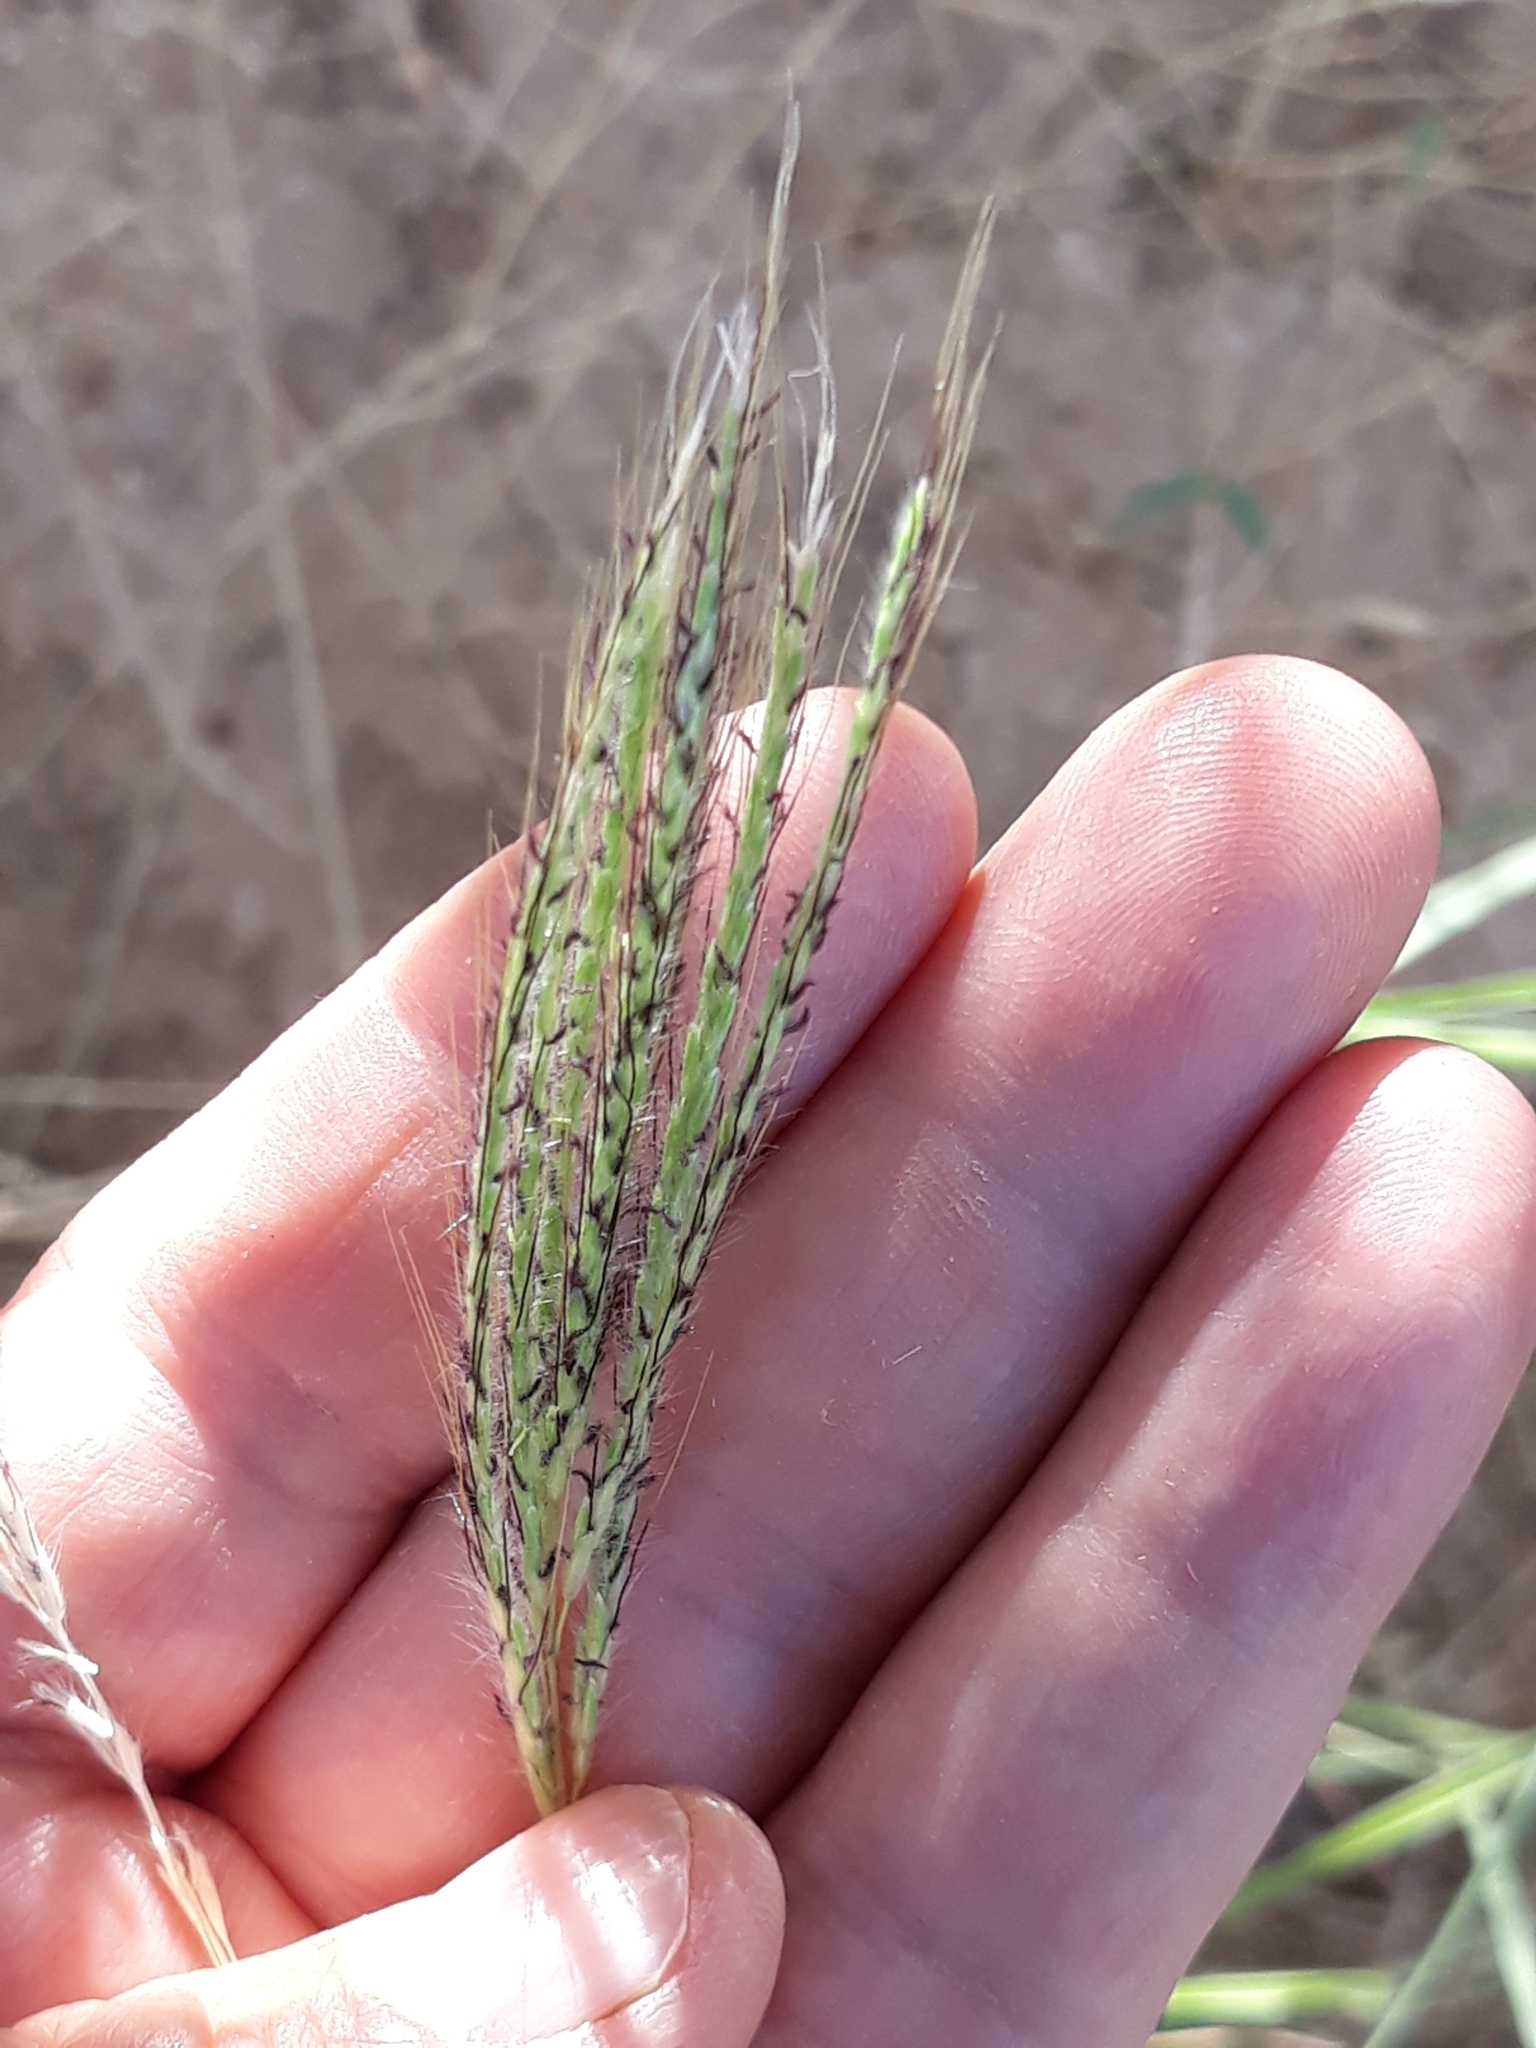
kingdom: Plantae
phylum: Tracheophyta
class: Liliopsida
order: Poales
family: Poaceae
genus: Bothriochloa
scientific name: Bothriochloa ischaemum
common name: Yellow bluestem
